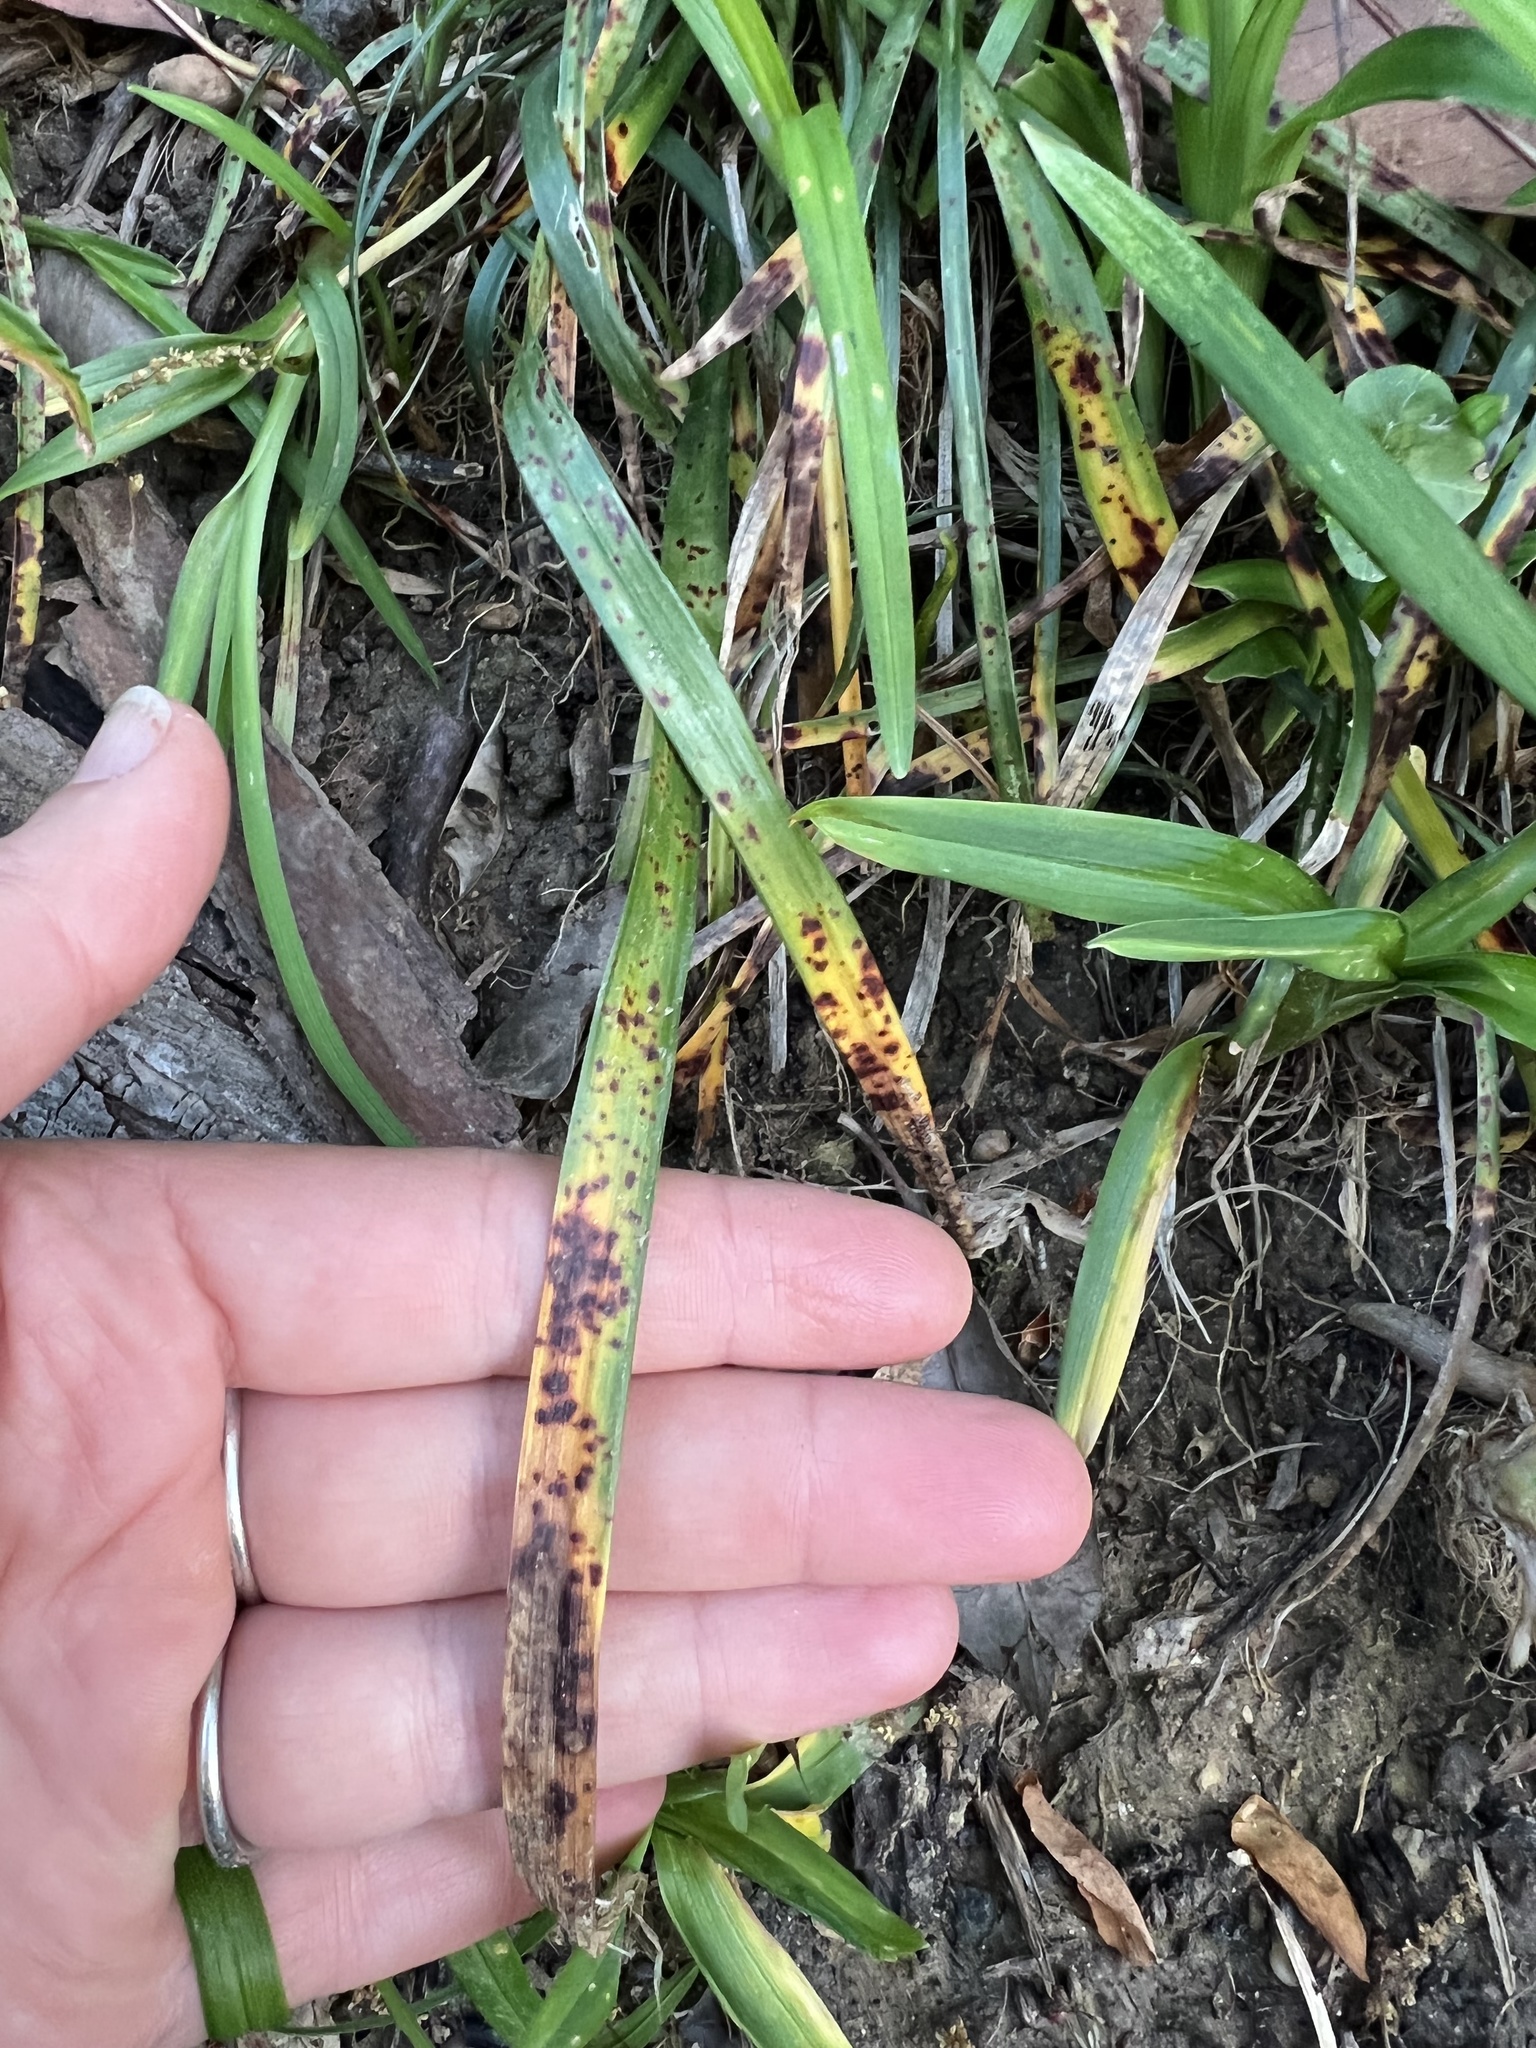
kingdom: Fungi
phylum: Ascomycota
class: Sordariomycetes
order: Glomerellales
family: Glomerellaceae
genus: Colletotrichum
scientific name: Colletotrichum liriopes
